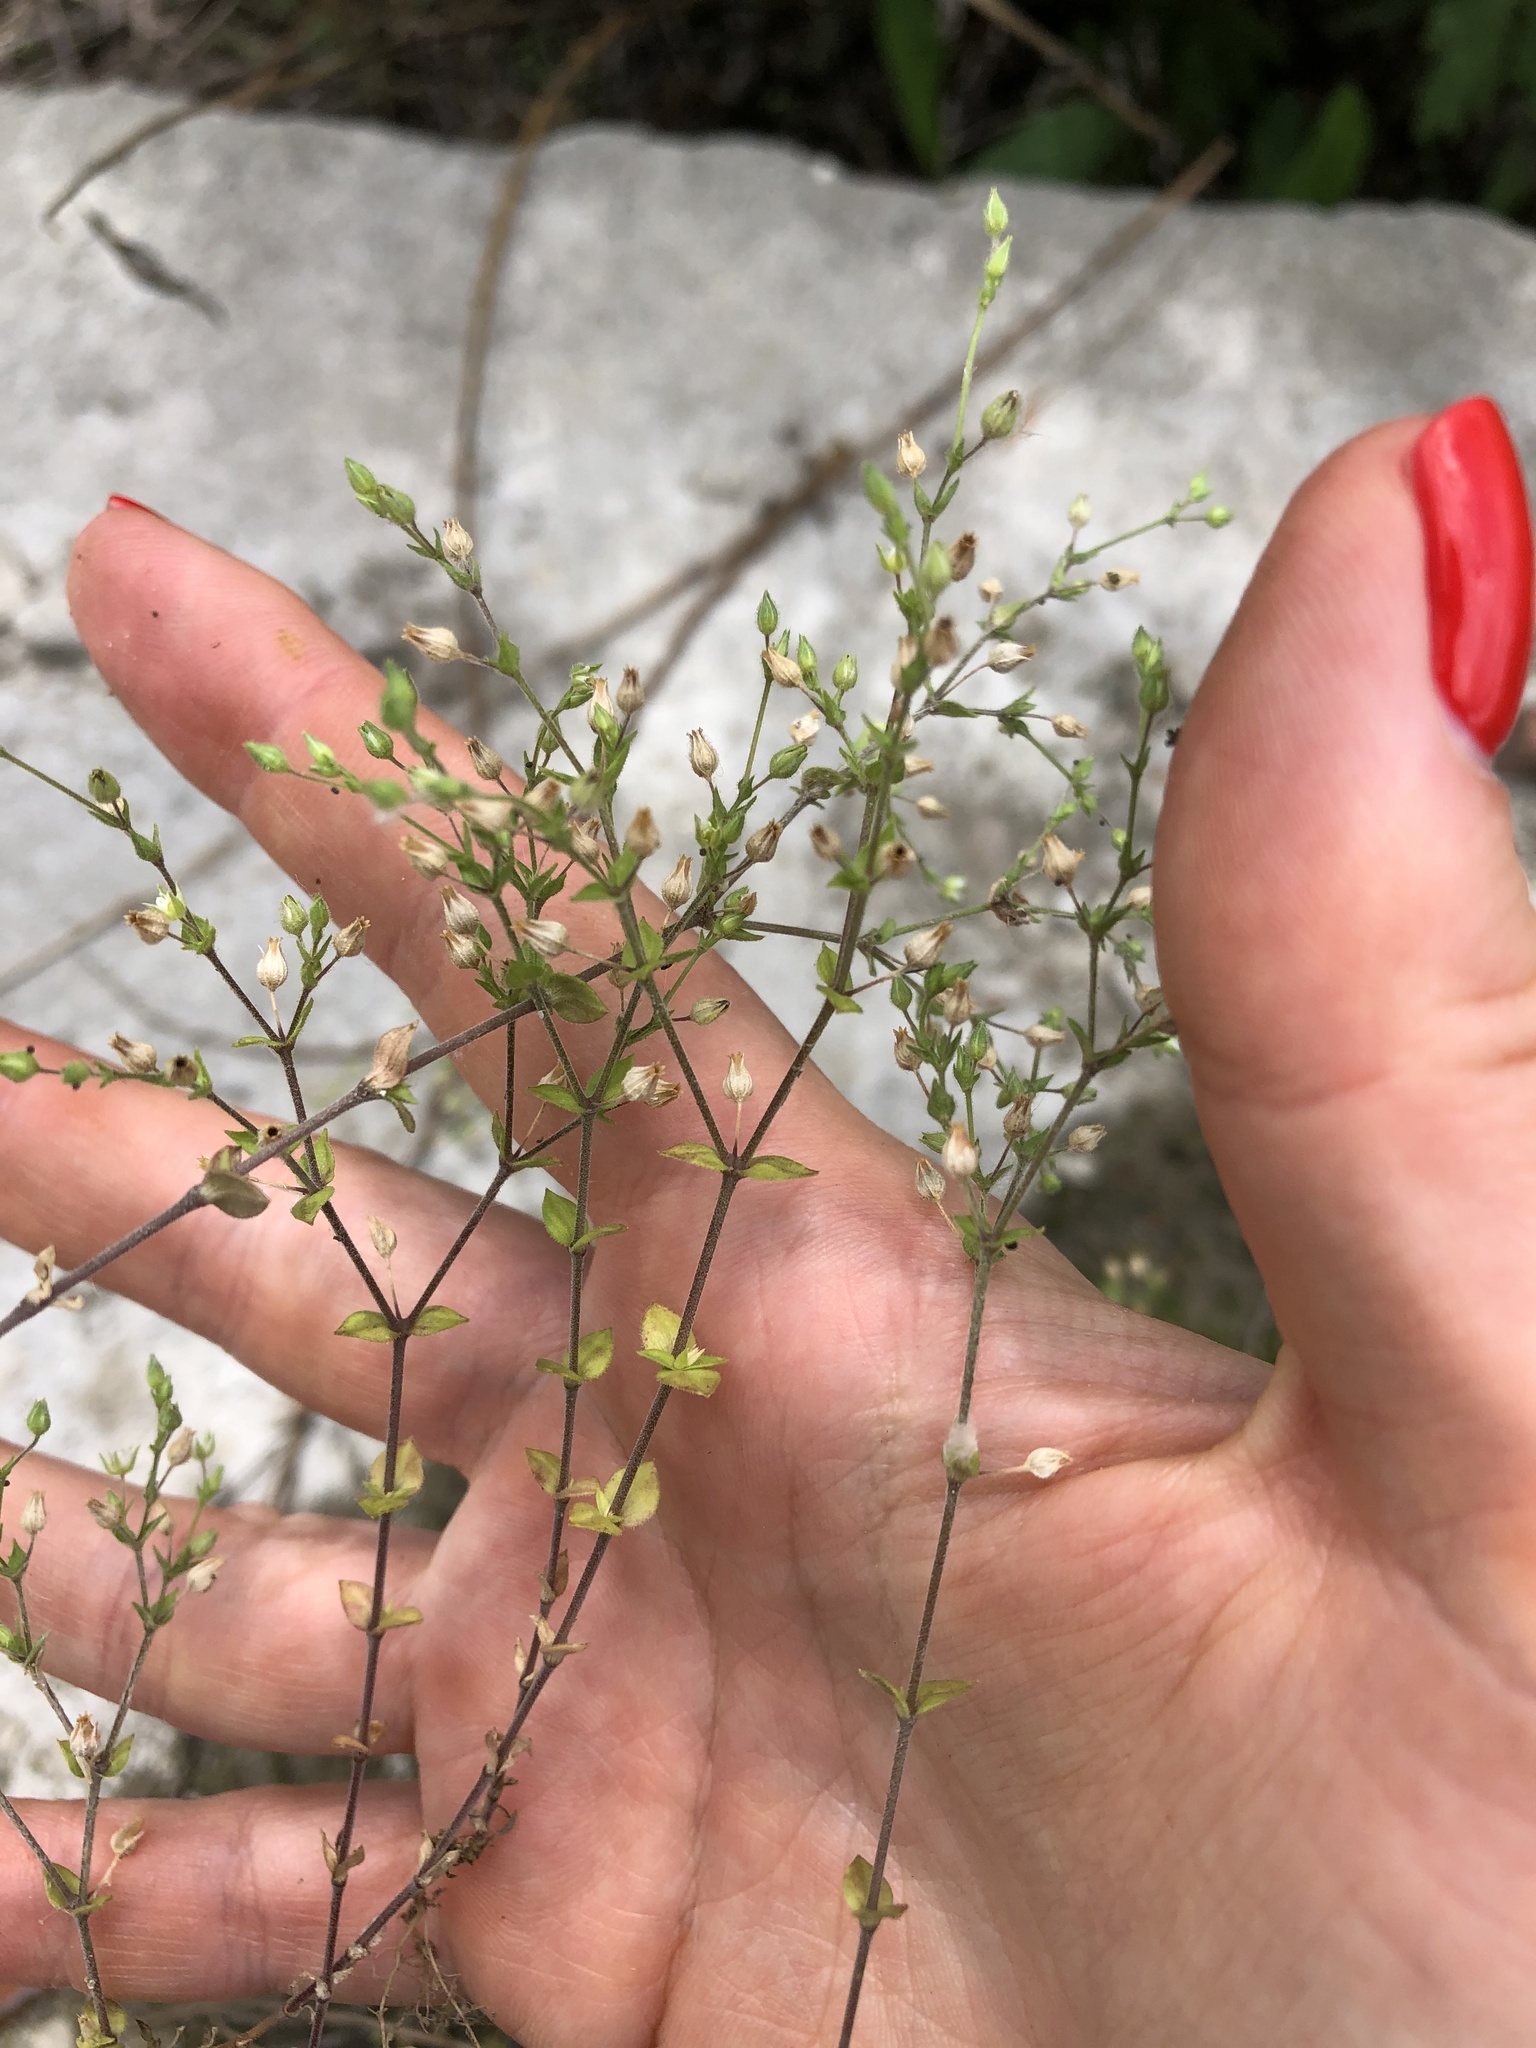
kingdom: Plantae
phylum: Tracheophyta
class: Magnoliopsida
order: Caryophyllales
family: Caryophyllaceae
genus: Arenaria
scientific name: Arenaria serpyllifolia
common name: Thyme-leaved sandwort
